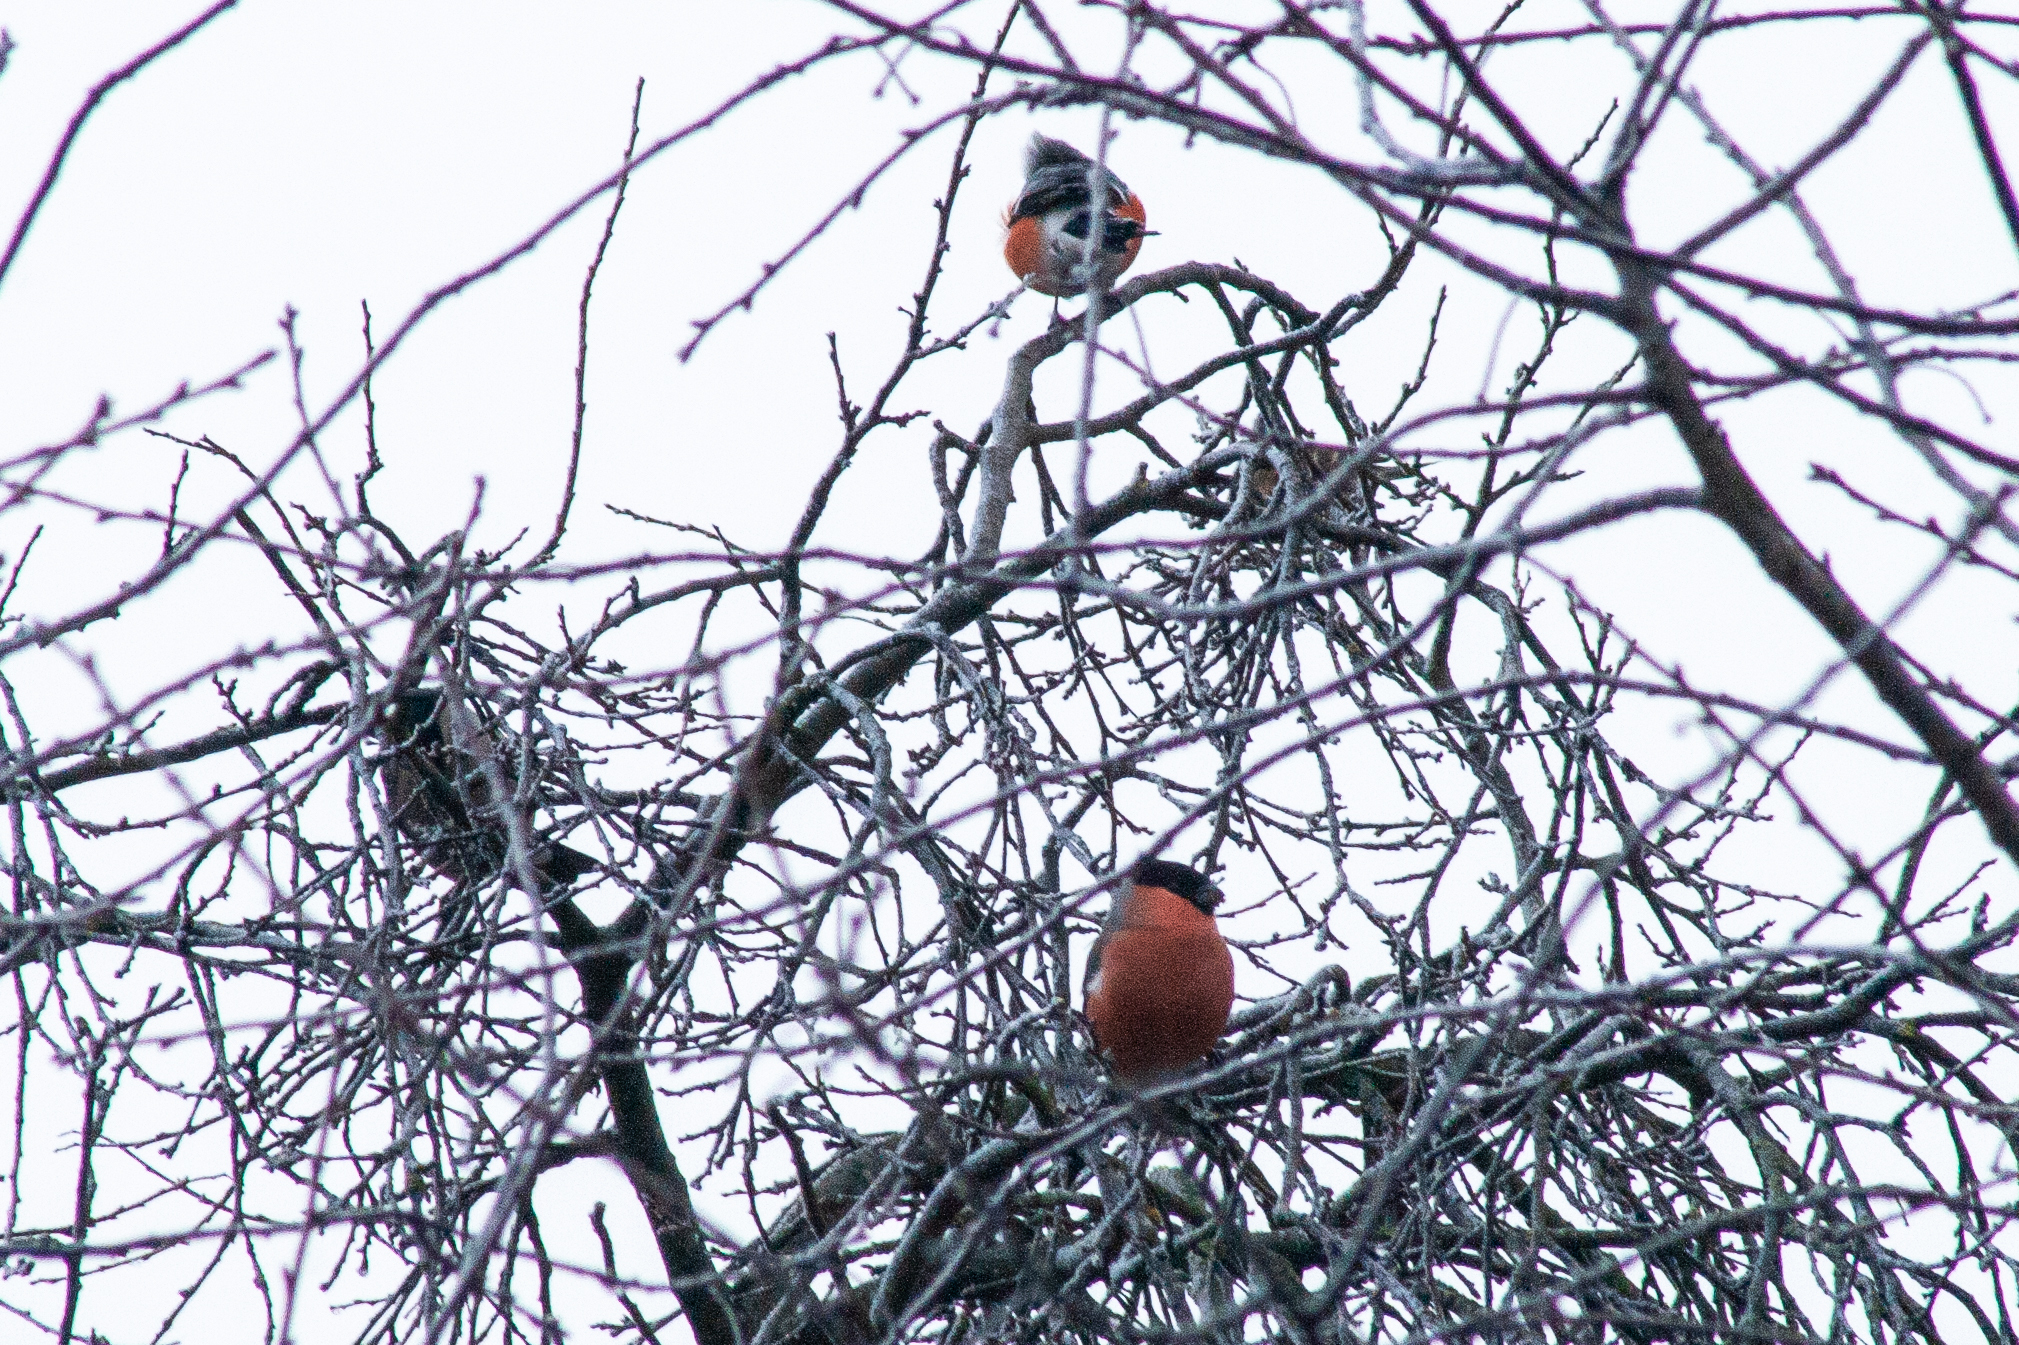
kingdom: Animalia
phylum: Chordata
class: Aves
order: Passeriformes
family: Fringillidae
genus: Pyrrhula
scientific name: Pyrrhula pyrrhula
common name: Eurasian bullfinch
